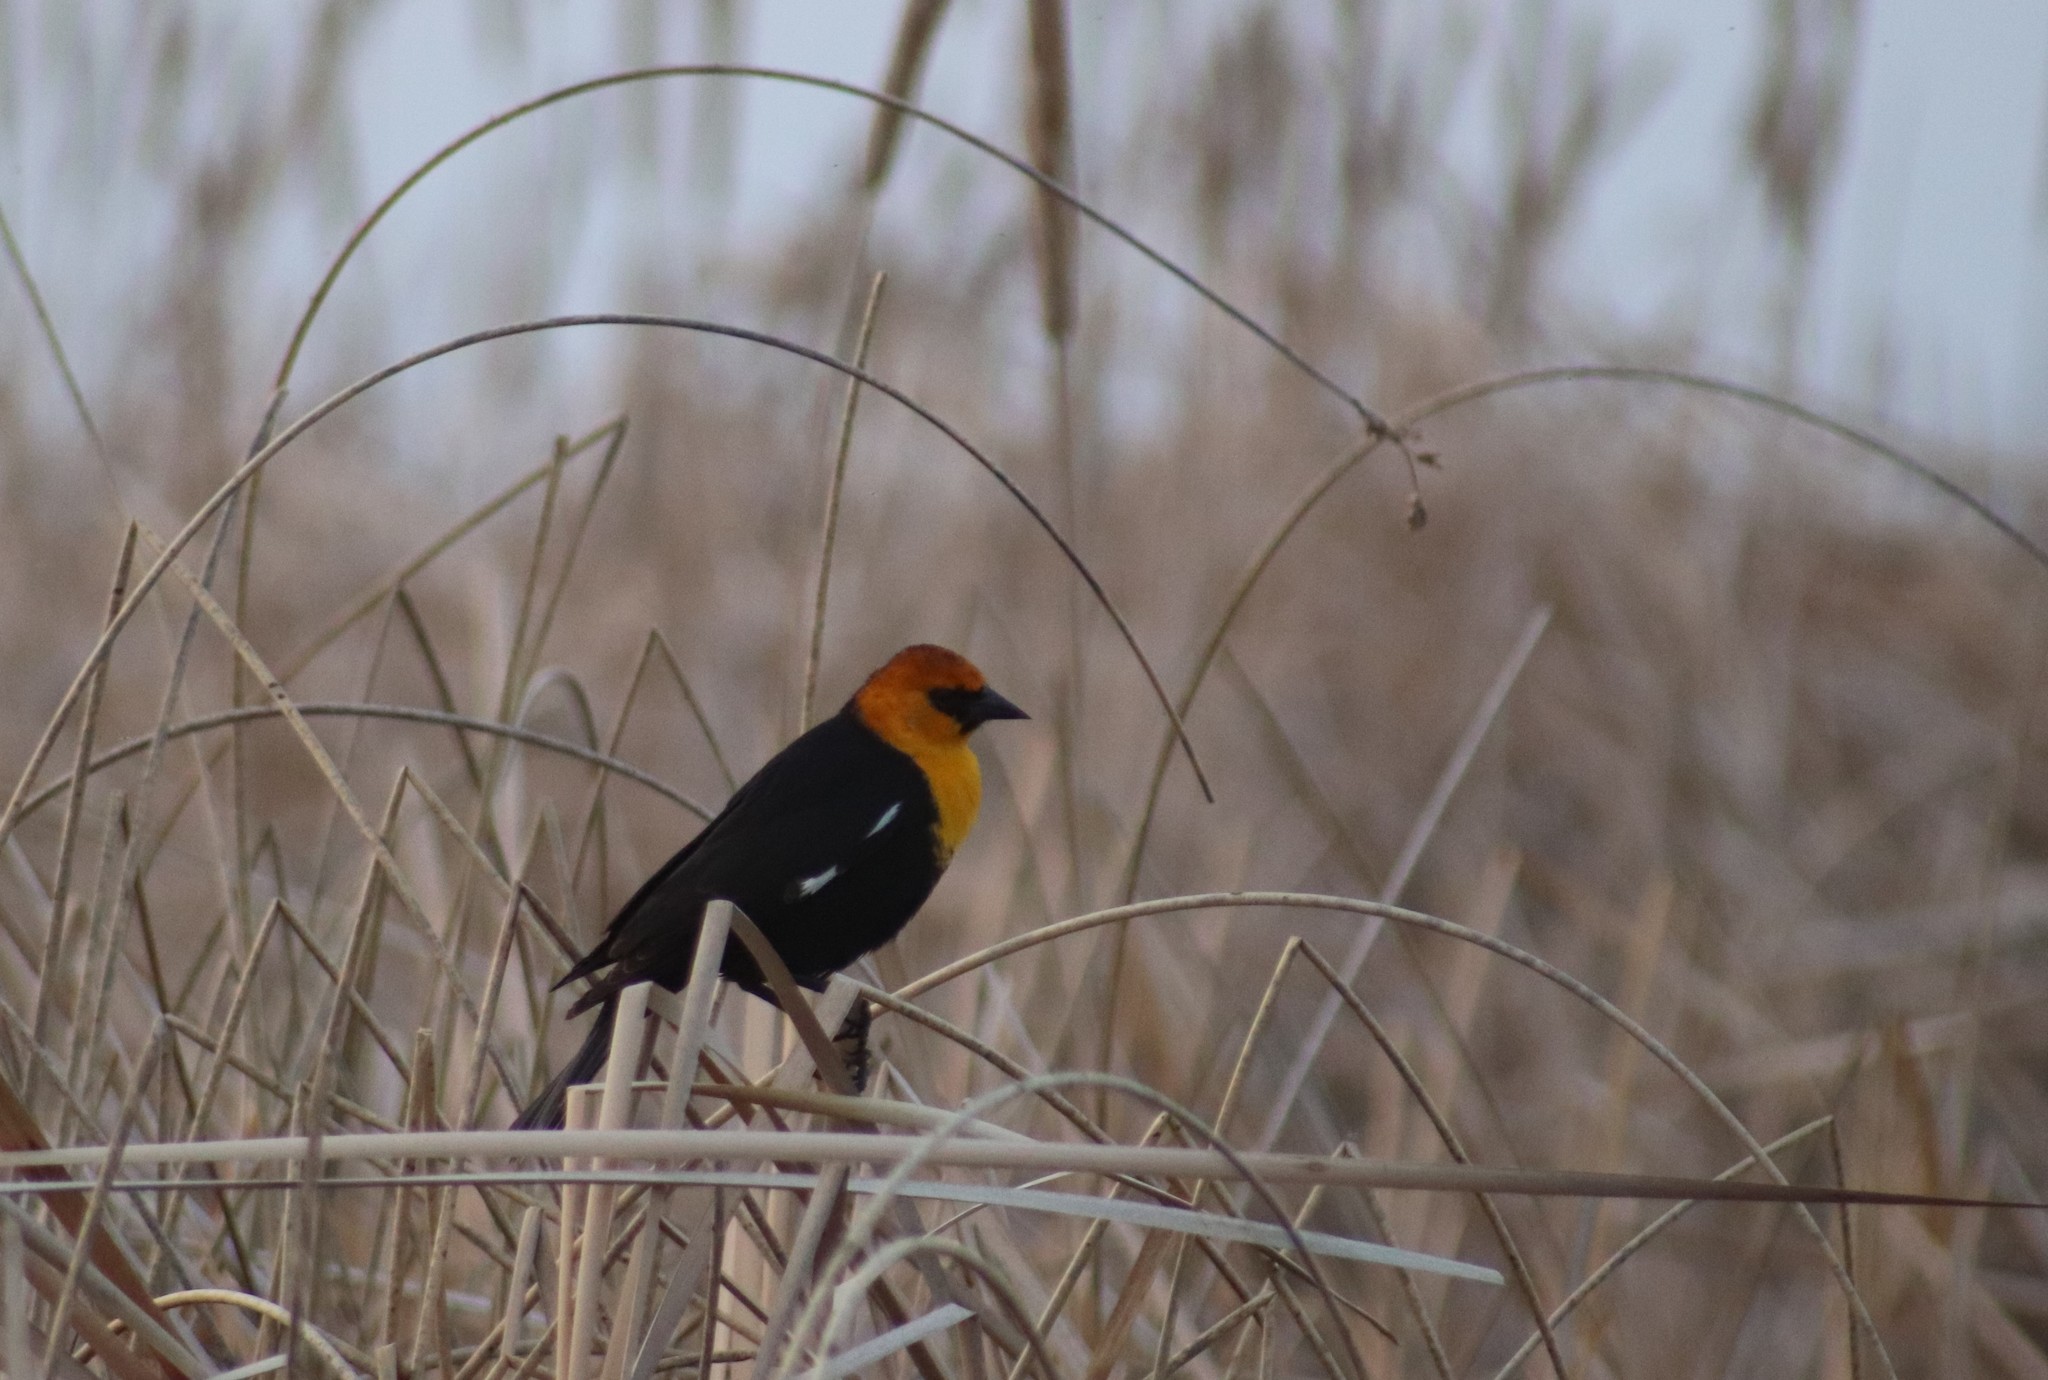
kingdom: Animalia
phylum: Chordata
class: Aves
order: Passeriformes
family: Icteridae
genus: Xanthocephalus
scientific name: Xanthocephalus xanthocephalus
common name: Yellow-headed blackbird
